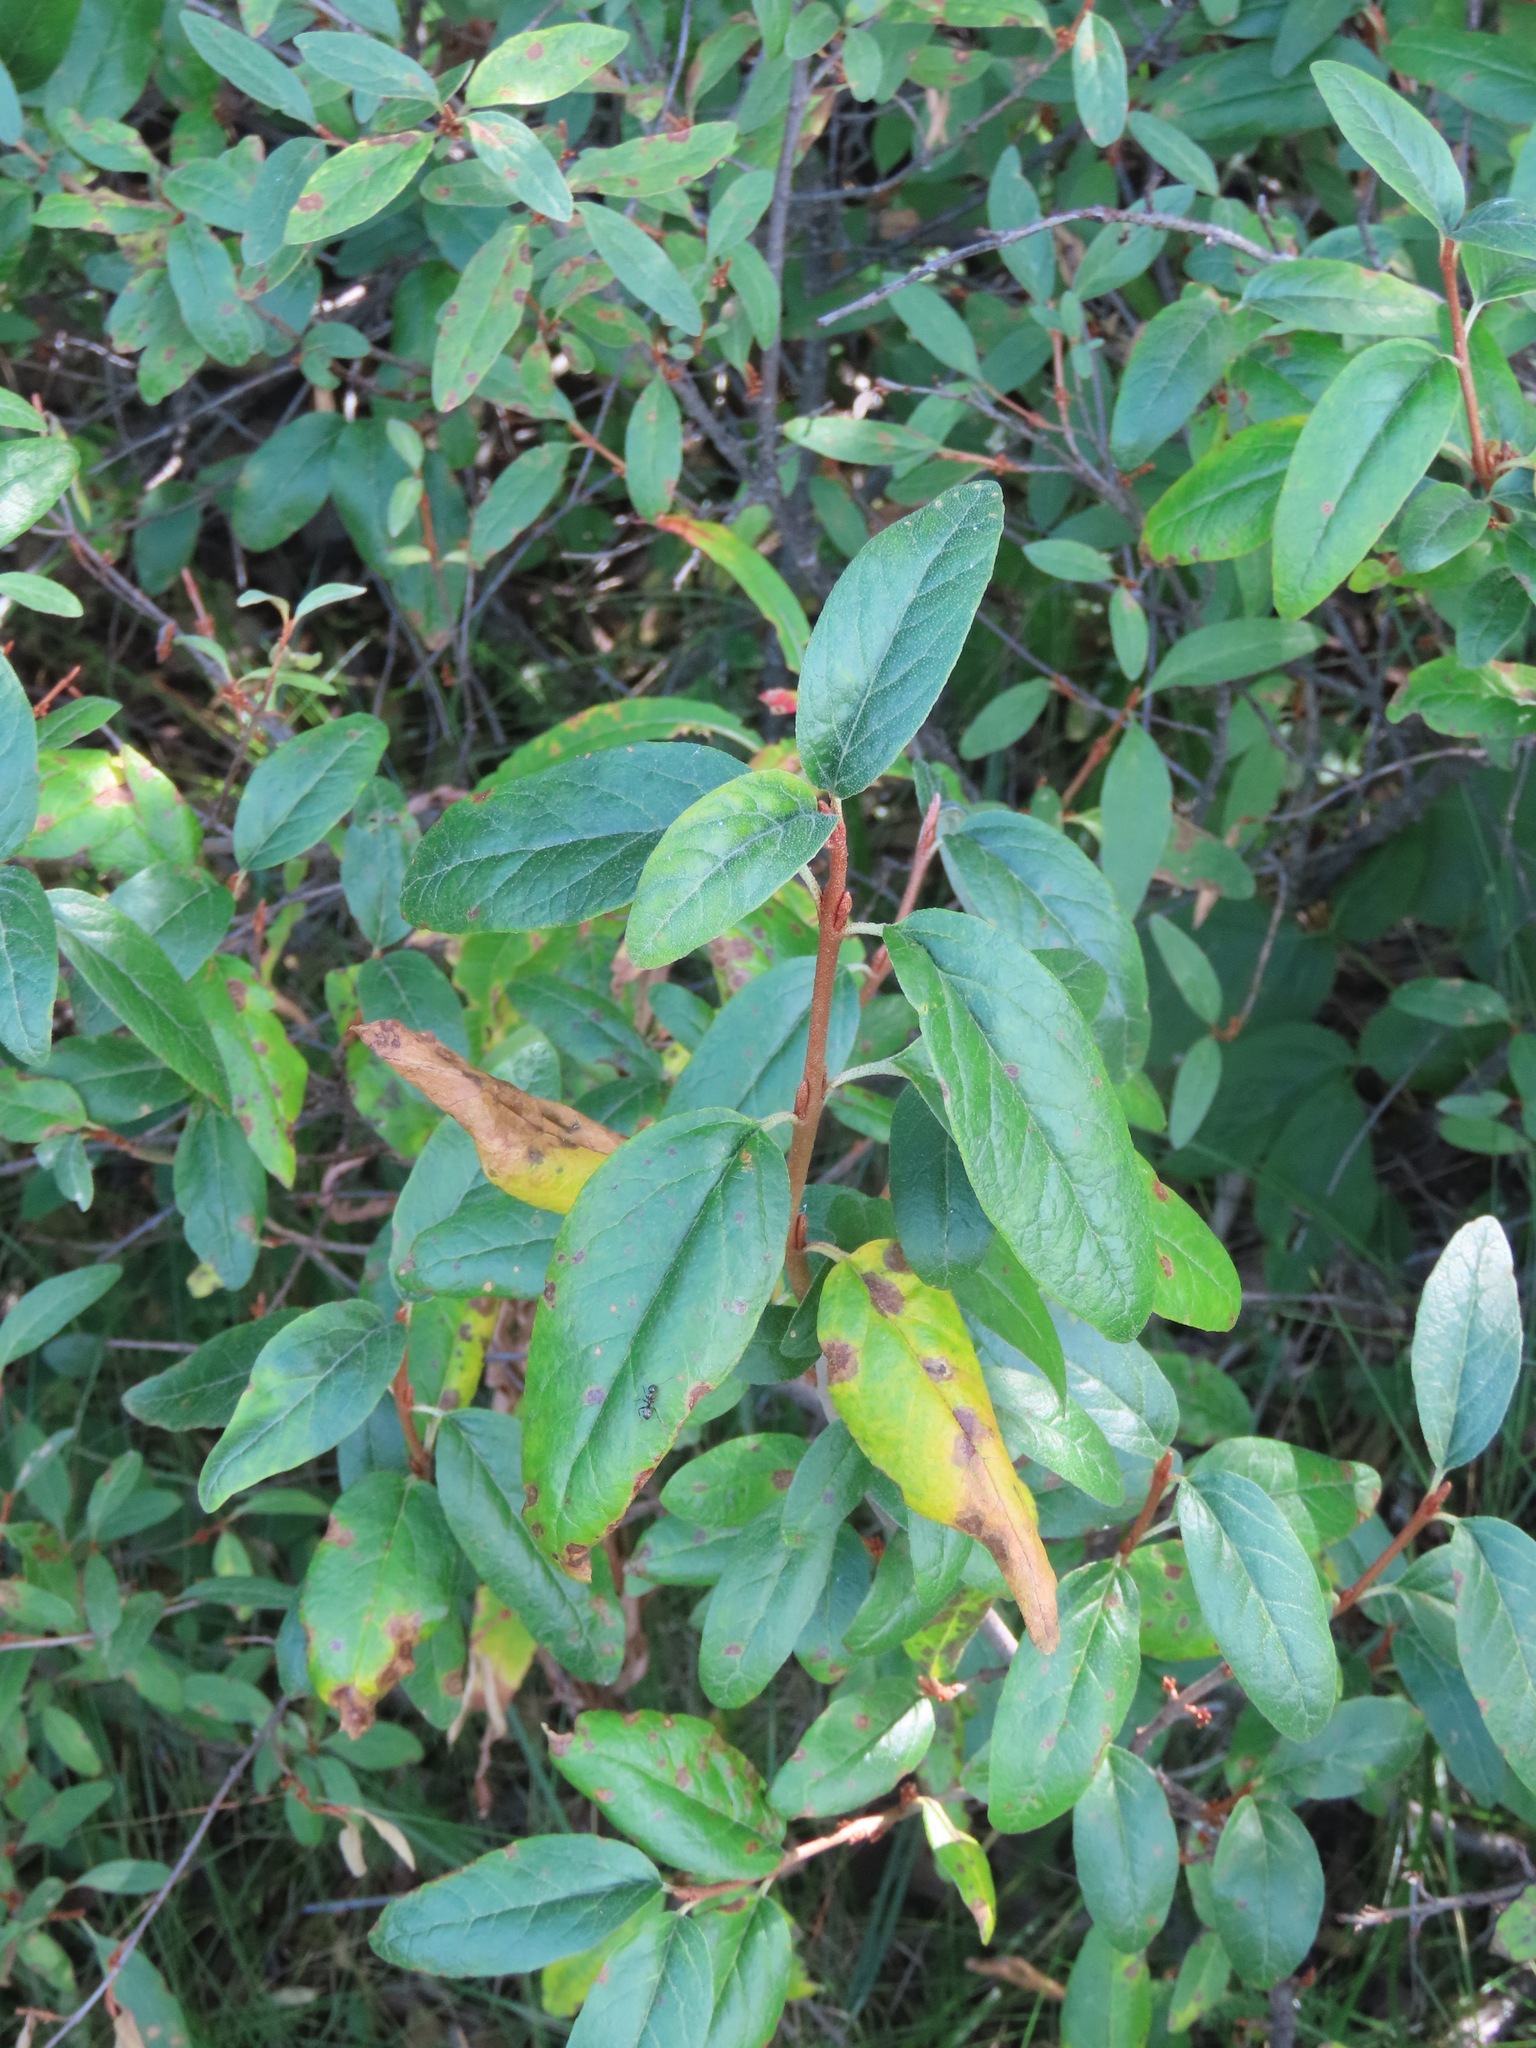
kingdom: Plantae
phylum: Tracheophyta
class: Magnoliopsida
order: Rosales
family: Elaeagnaceae
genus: Shepherdia
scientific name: Shepherdia canadensis
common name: Soapberry
